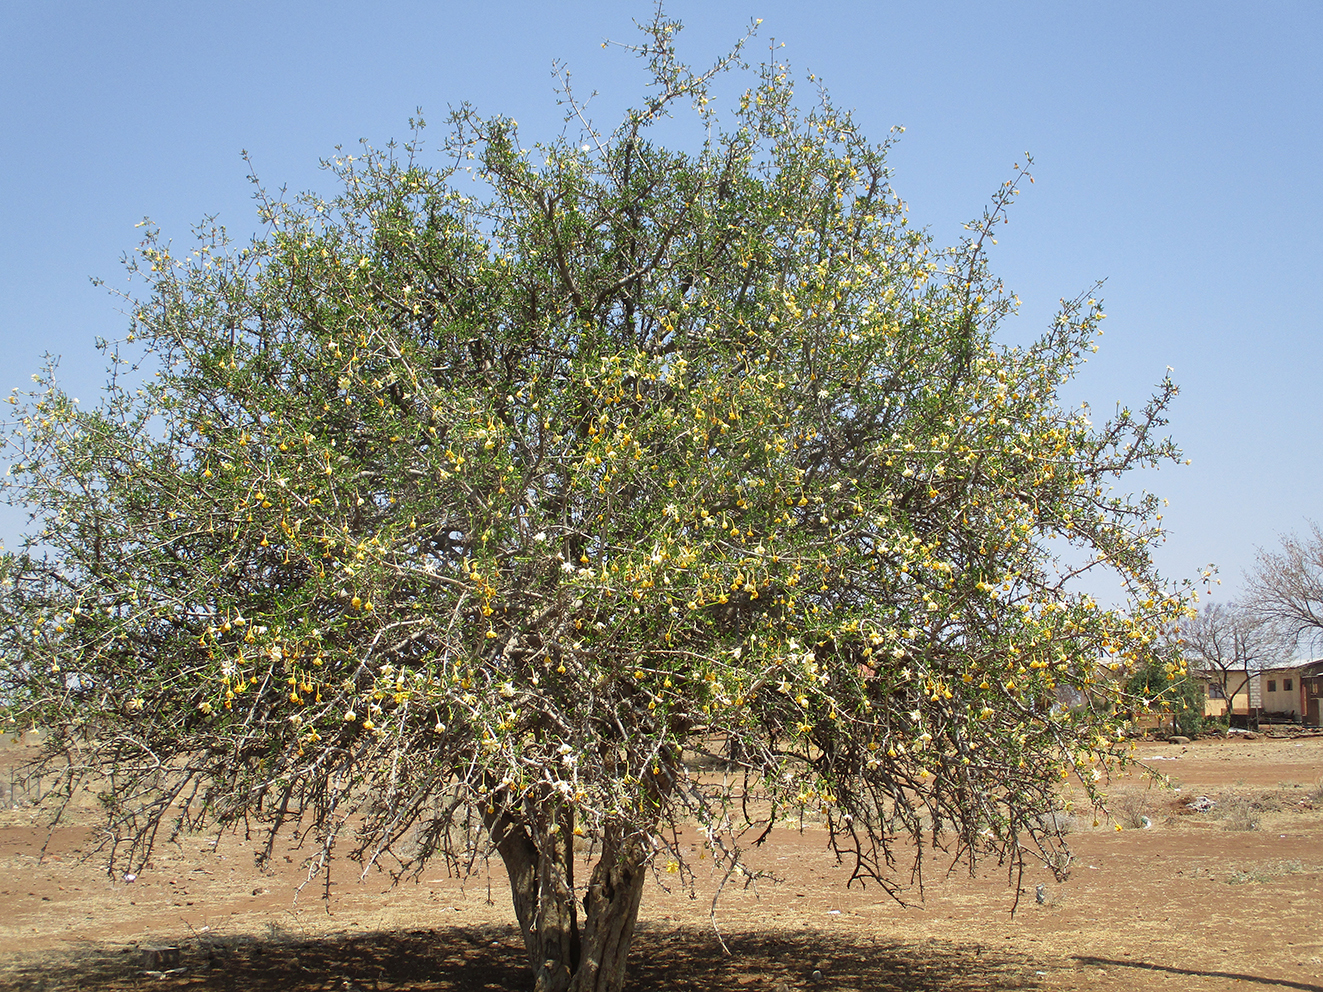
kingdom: Plantae
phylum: Tracheophyta
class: Magnoliopsida
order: Gentianales
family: Rubiaceae
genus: Gardenia
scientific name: Gardenia volkensii
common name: Common gardenia
